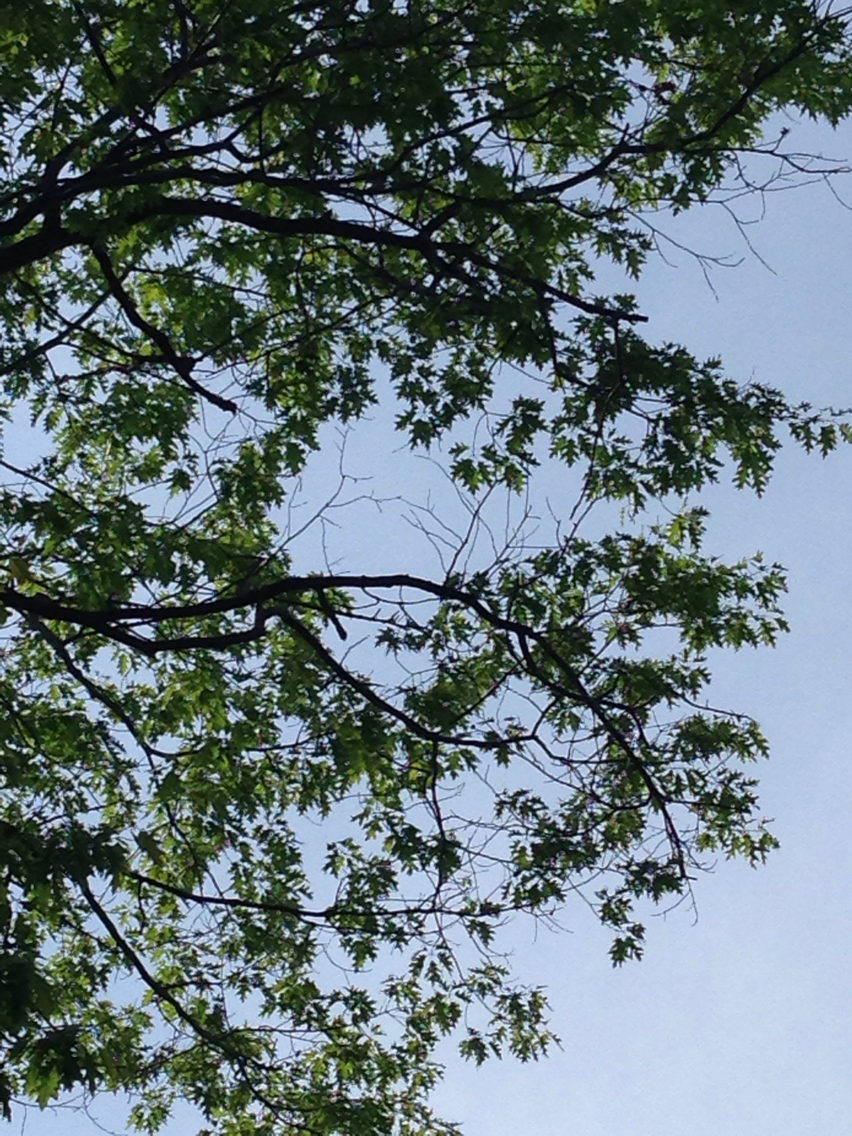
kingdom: Plantae
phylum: Tracheophyta
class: Magnoliopsida
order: Fagales
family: Fagaceae
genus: Quercus
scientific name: Quercus rubra
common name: Red oak
